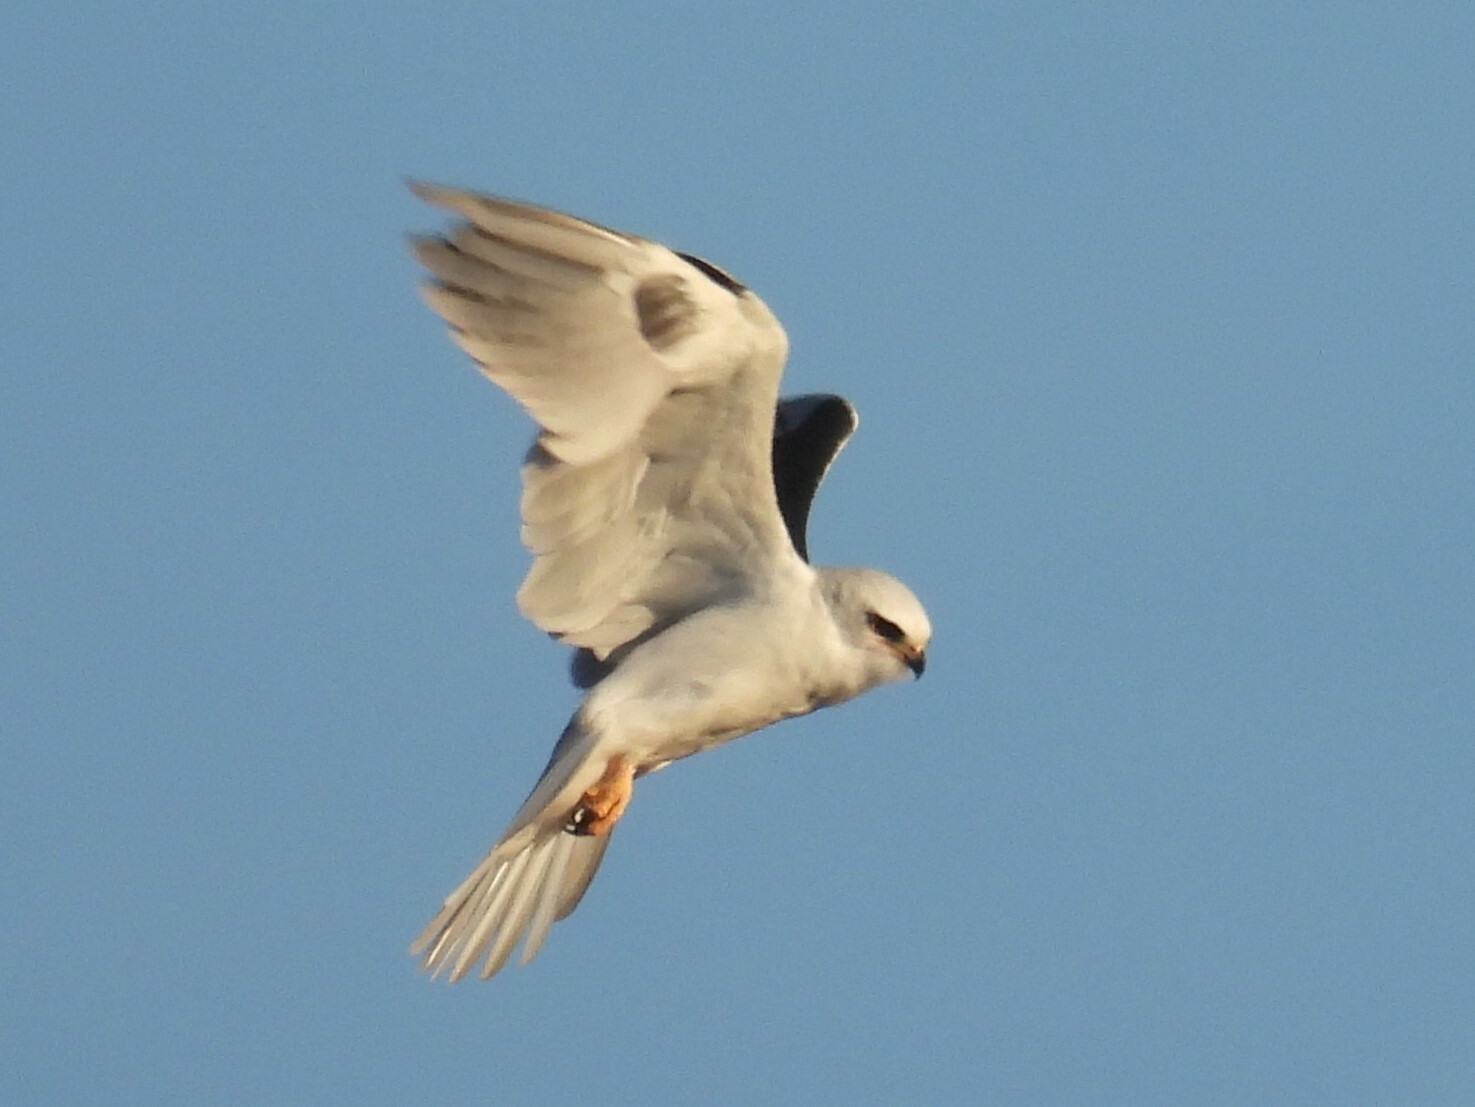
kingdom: Animalia
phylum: Chordata
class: Aves
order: Accipitriformes
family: Accipitridae
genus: Elanus
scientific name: Elanus leucurus
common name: White-tailed kite
